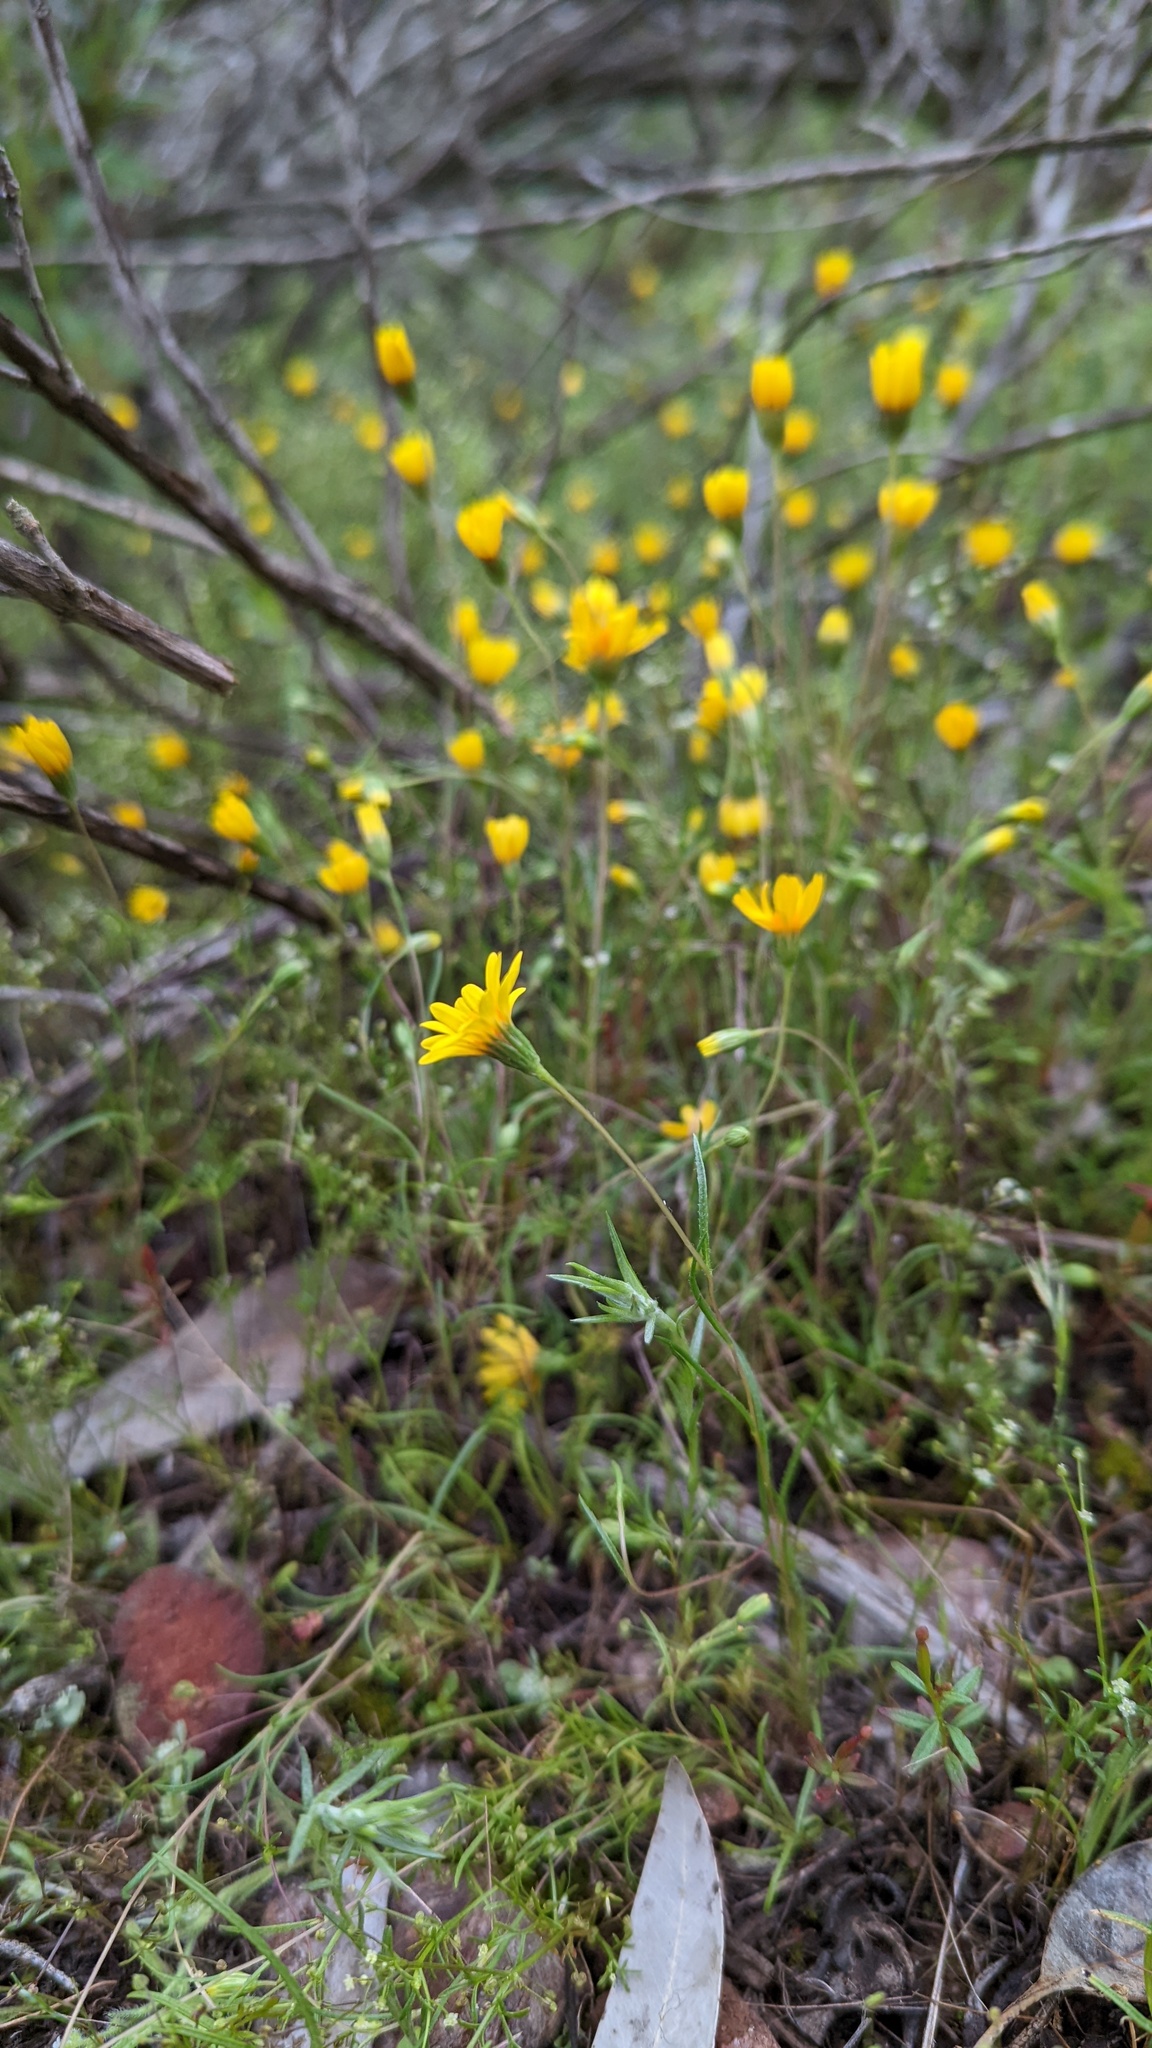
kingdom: Plantae
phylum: Tracheophyta
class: Magnoliopsida
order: Asterales
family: Asteraceae
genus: Pentachaeta
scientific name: Pentachaeta aurea
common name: Golden-ray pentachaeta
